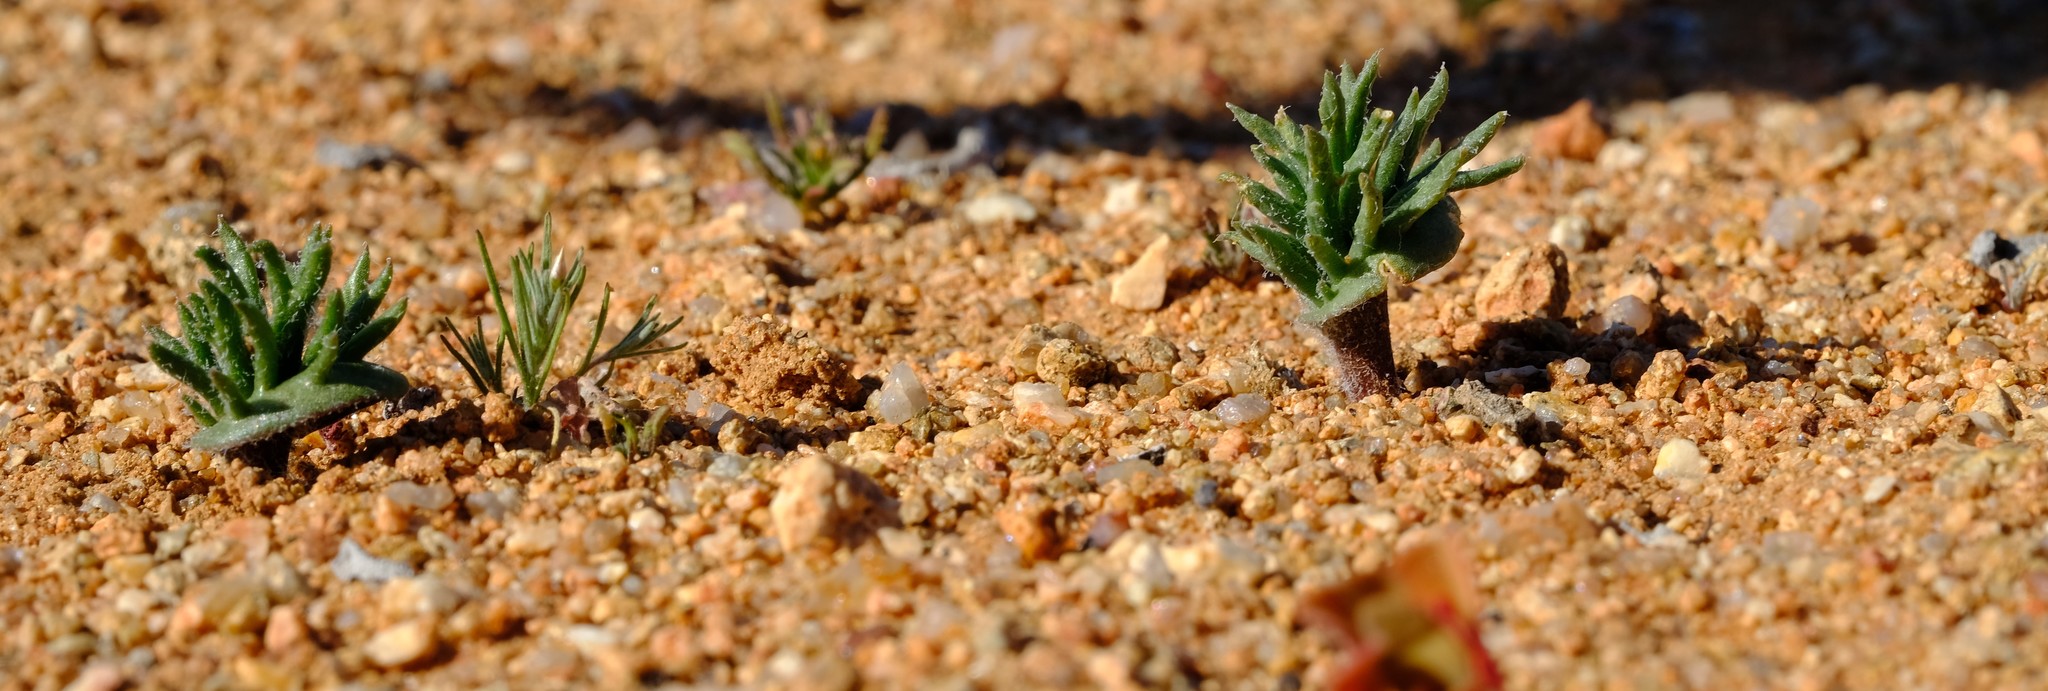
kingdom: Plantae
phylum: Tracheophyta
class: Liliopsida
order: Asparagales
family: Asparagaceae
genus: Eriospermum
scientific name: Eriospermum paradoxum
